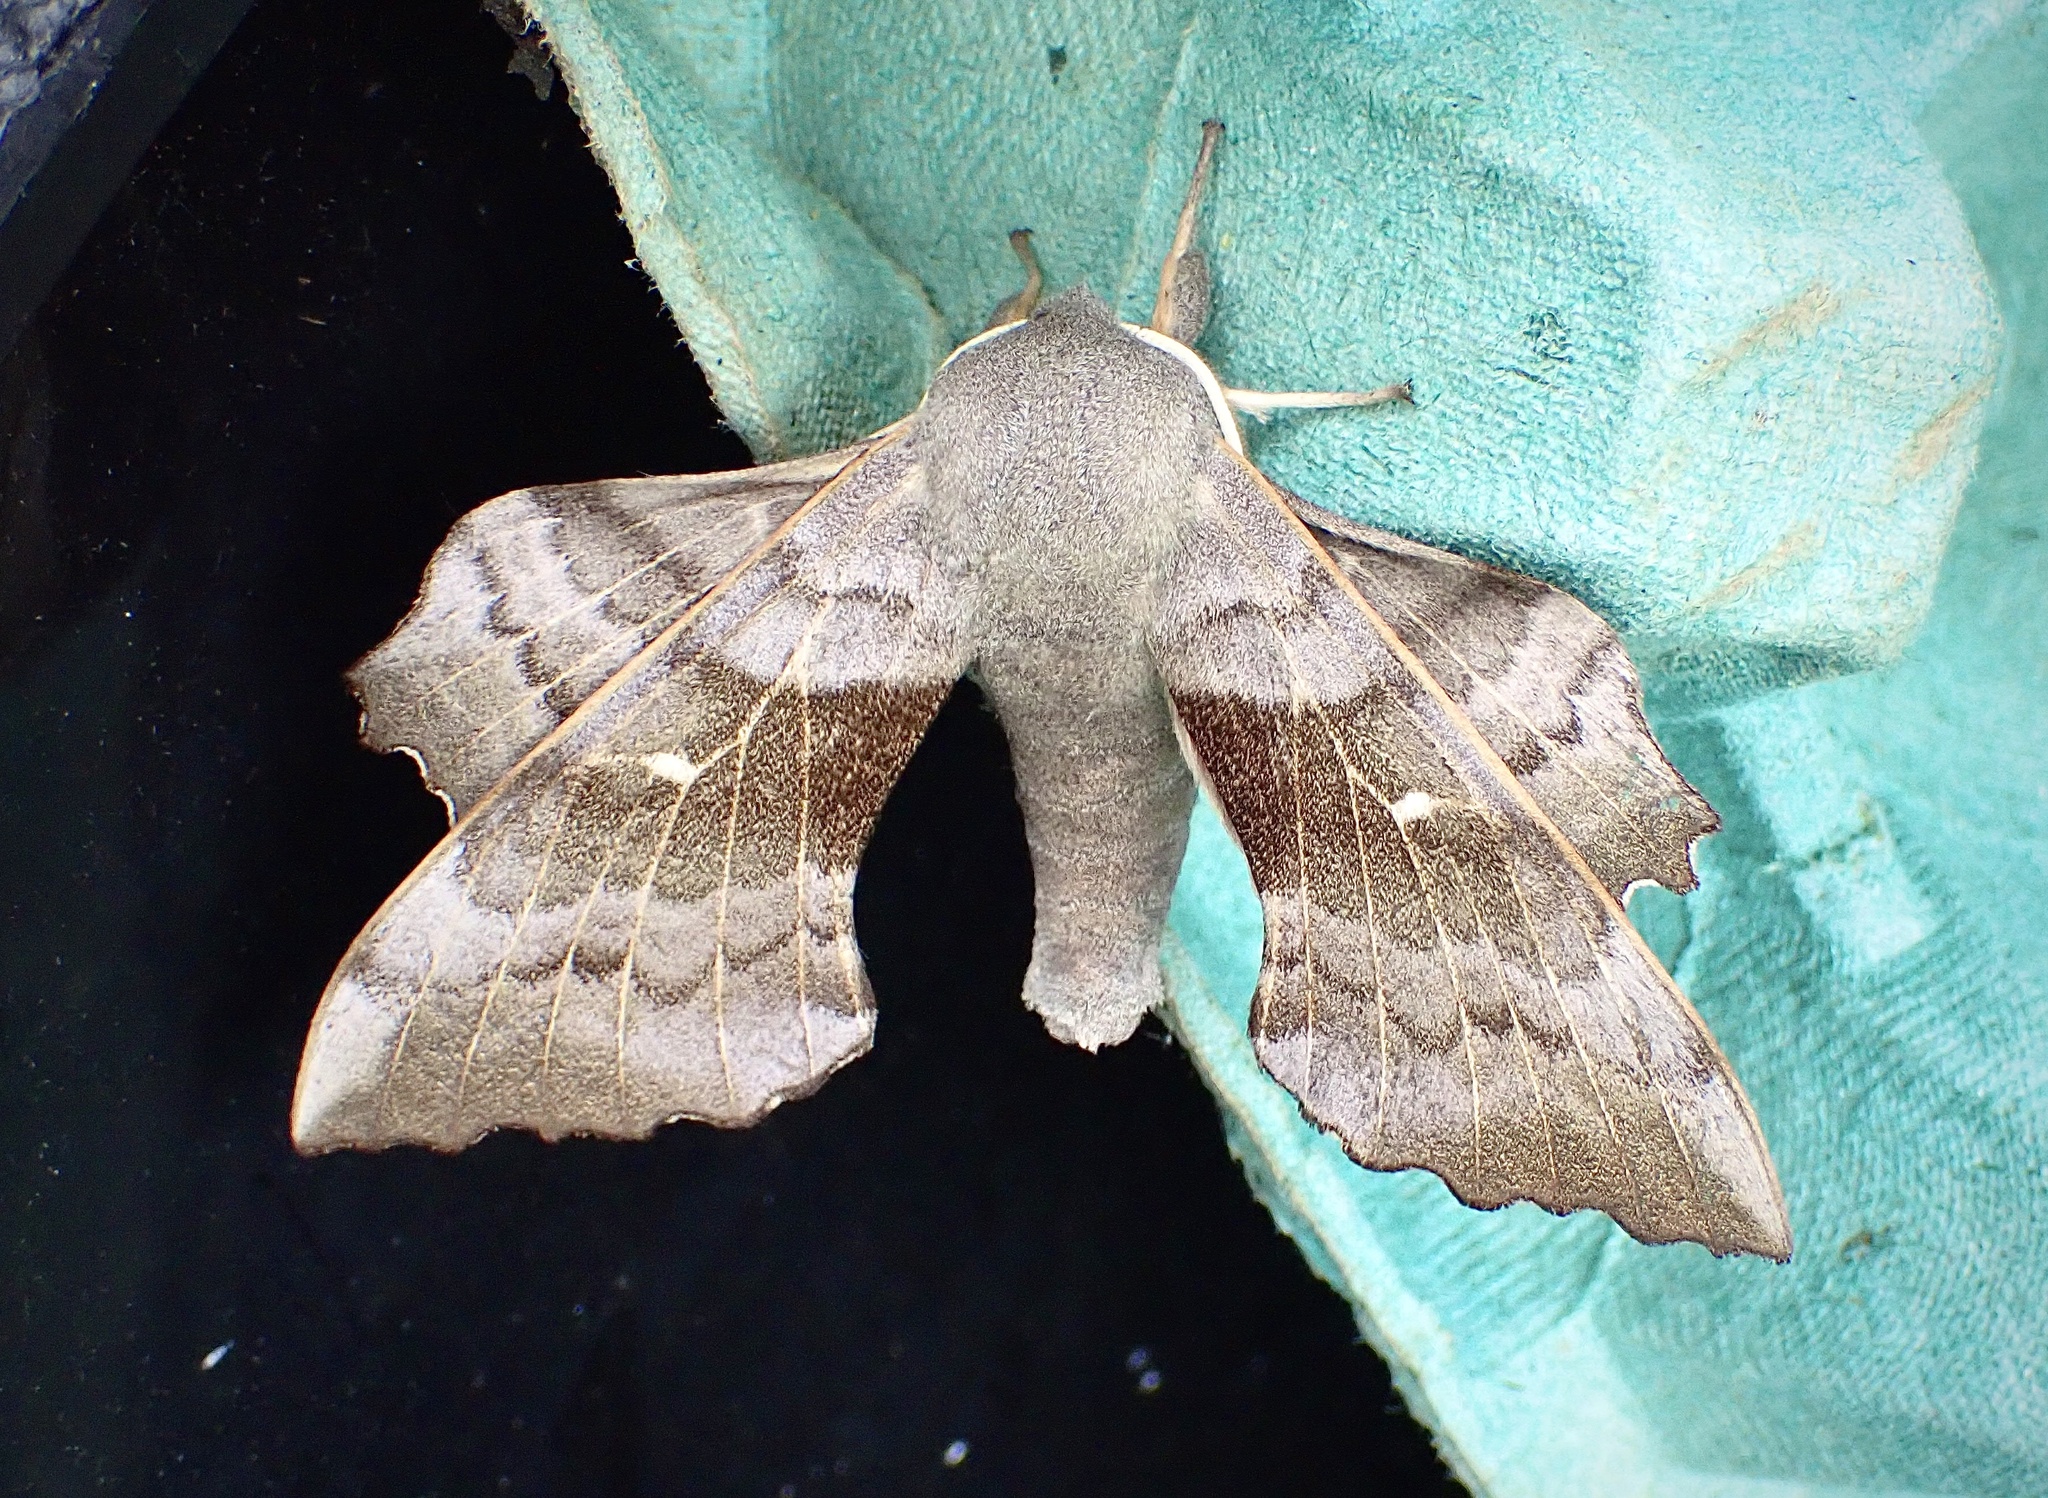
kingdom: Animalia
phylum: Arthropoda
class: Insecta
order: Lepidoptera
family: Sphingidae
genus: Laothoe
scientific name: Laothoe populi
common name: Poplar hawk-moth
